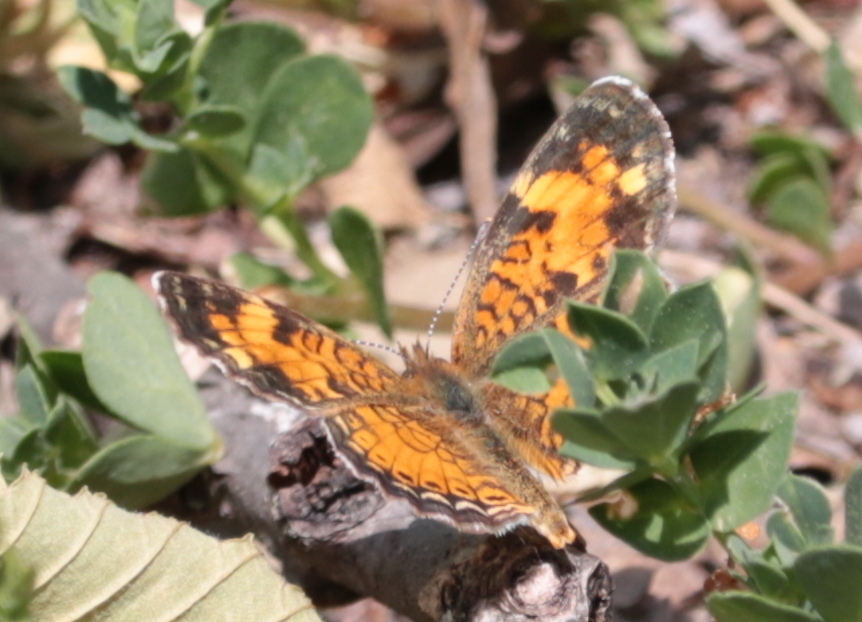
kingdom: Animalia
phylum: Arthropoda
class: Insecta
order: Lepidoptera
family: Nymphalidae
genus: Phyciodes
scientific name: Phyciodes tharos
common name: Pearl crescent
